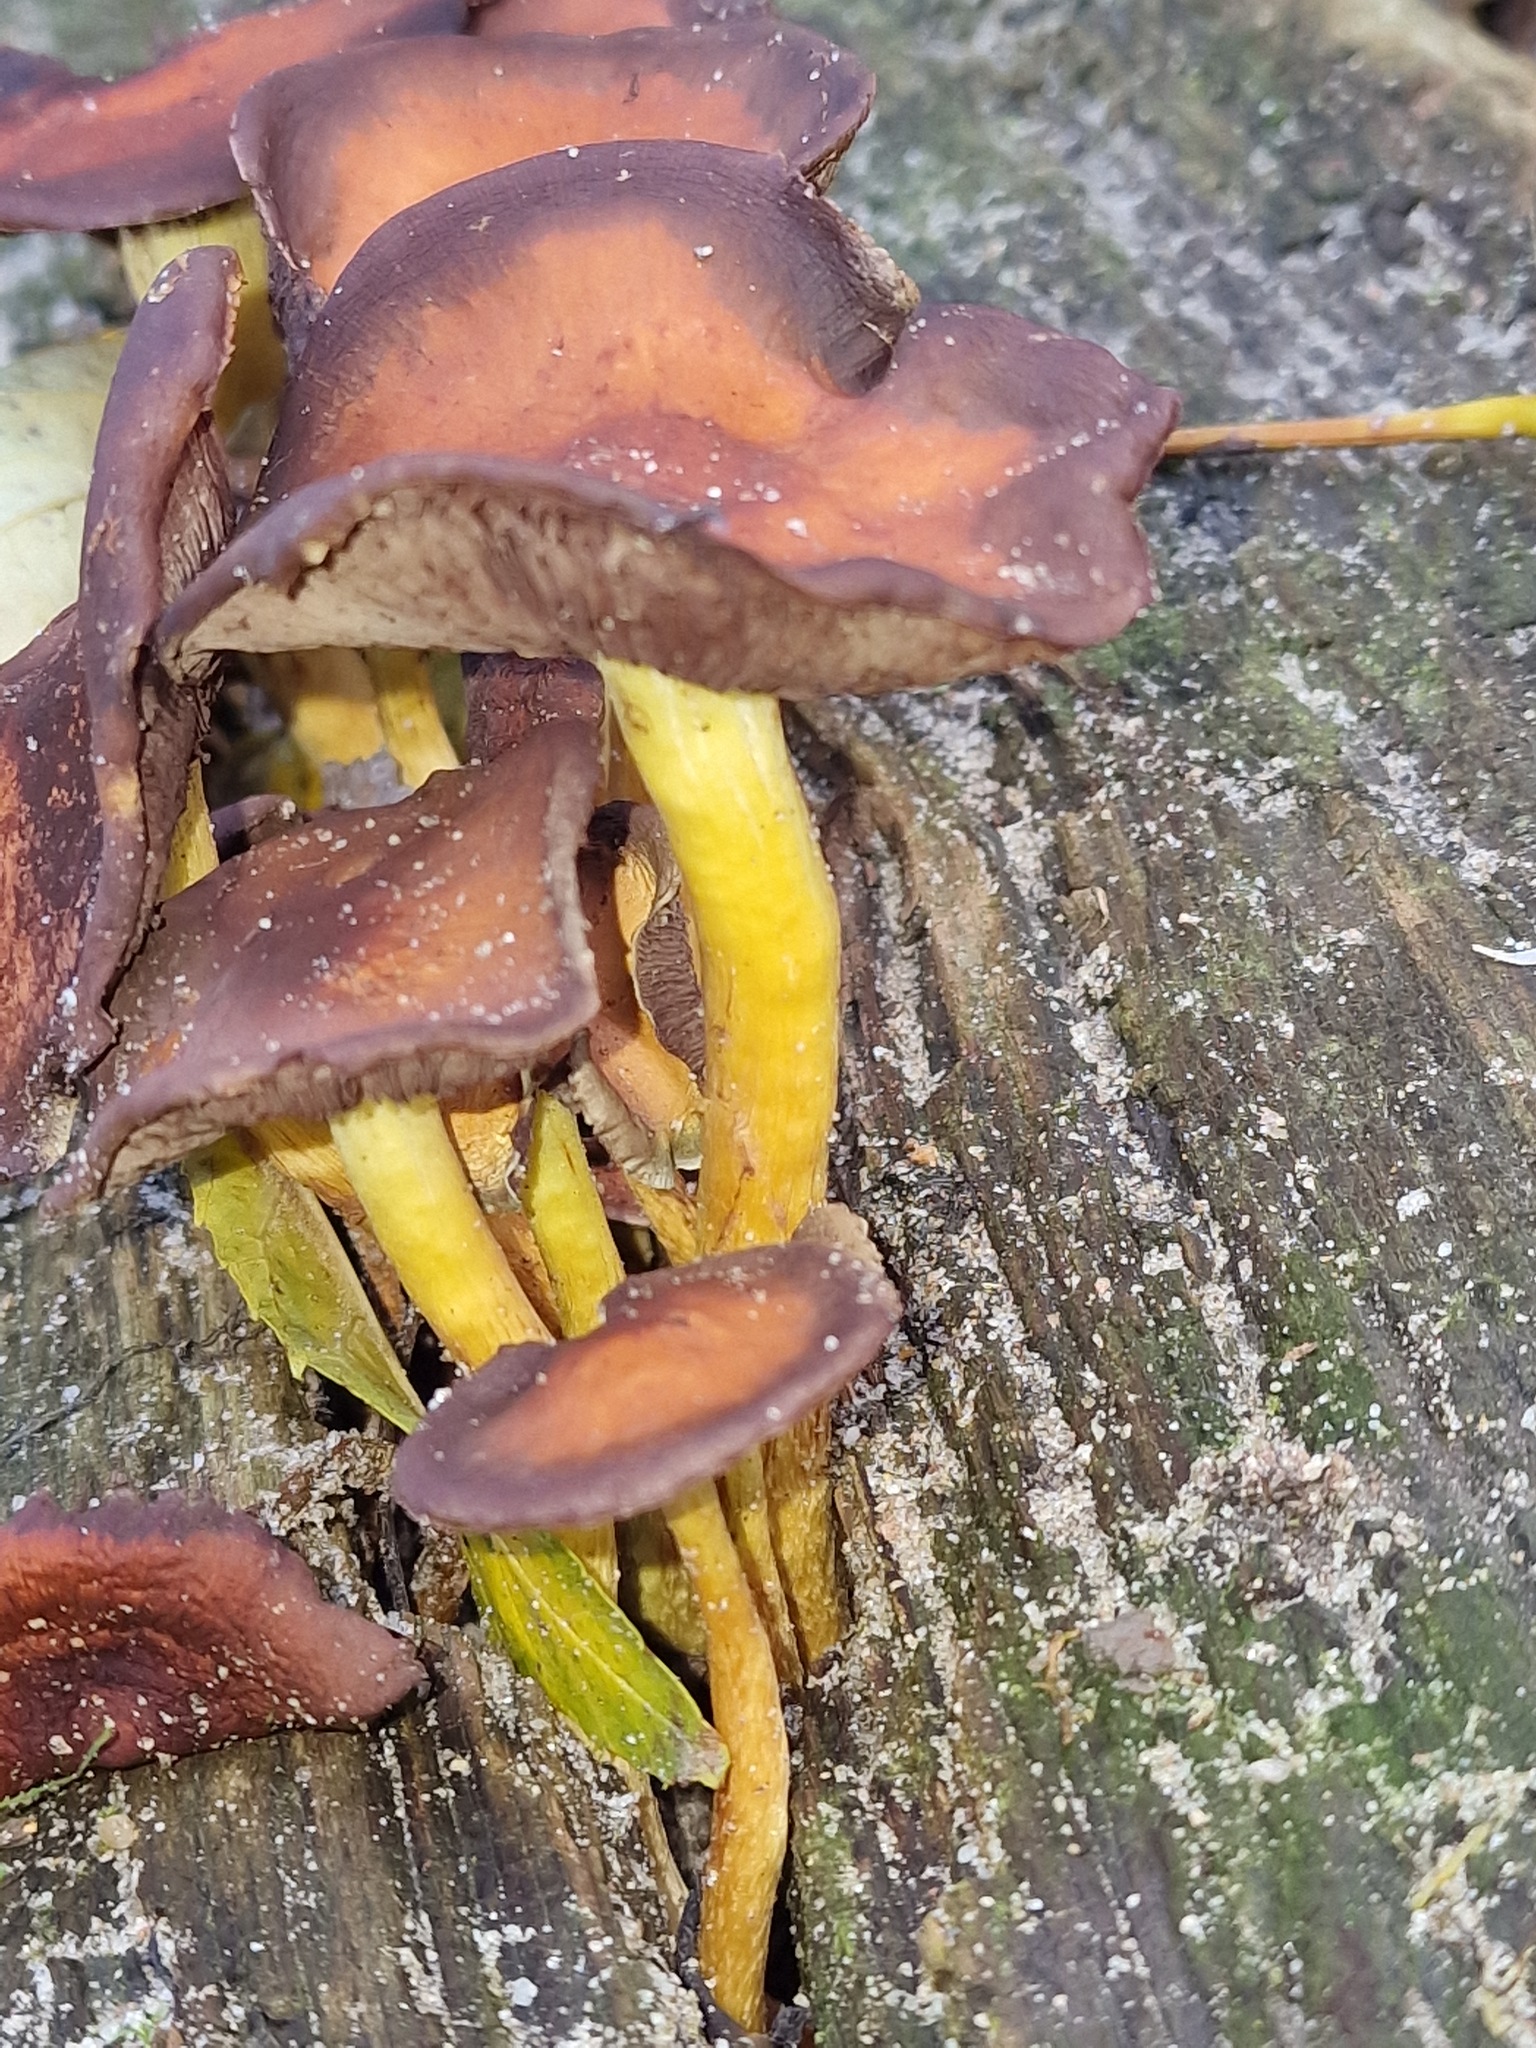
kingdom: Fungi
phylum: Basidiomycota
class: Agaricomycetes
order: Agaricales
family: Strophariaceae
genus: Hypholoma
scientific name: Hypholoma fasciculare
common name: Sulphur tuft
